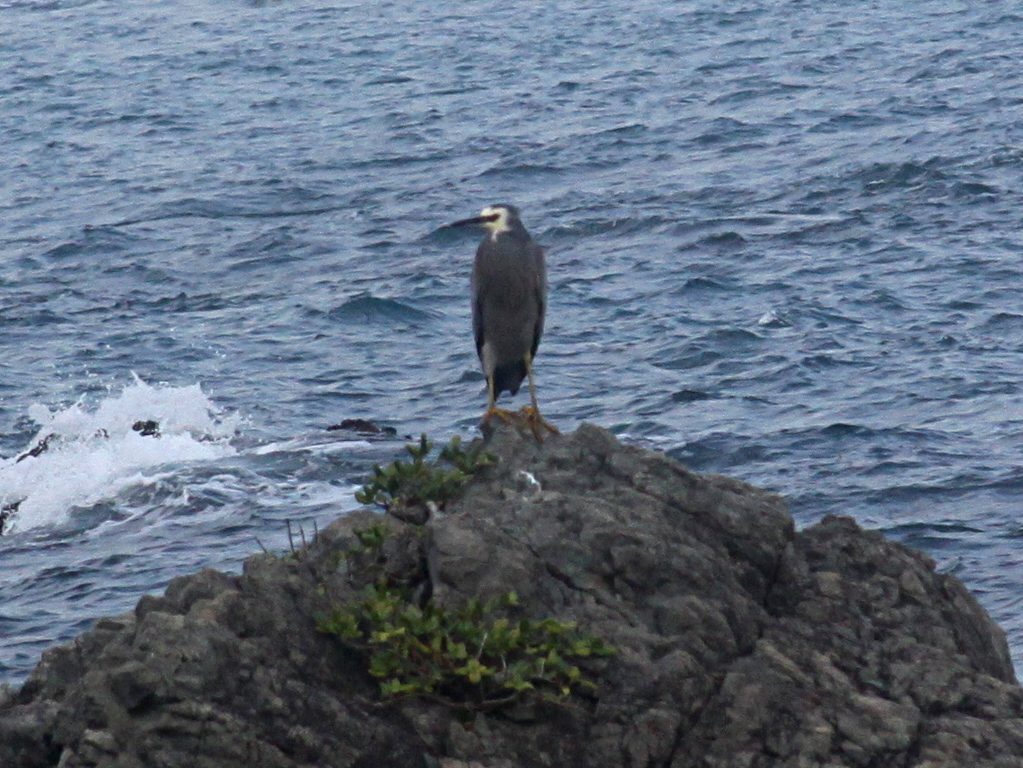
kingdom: Animalia
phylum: Chordata
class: Aves
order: Pelecaniformes
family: Ardeidae
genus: Egretta
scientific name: Egretta novaehollandiae
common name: White-faced heron
